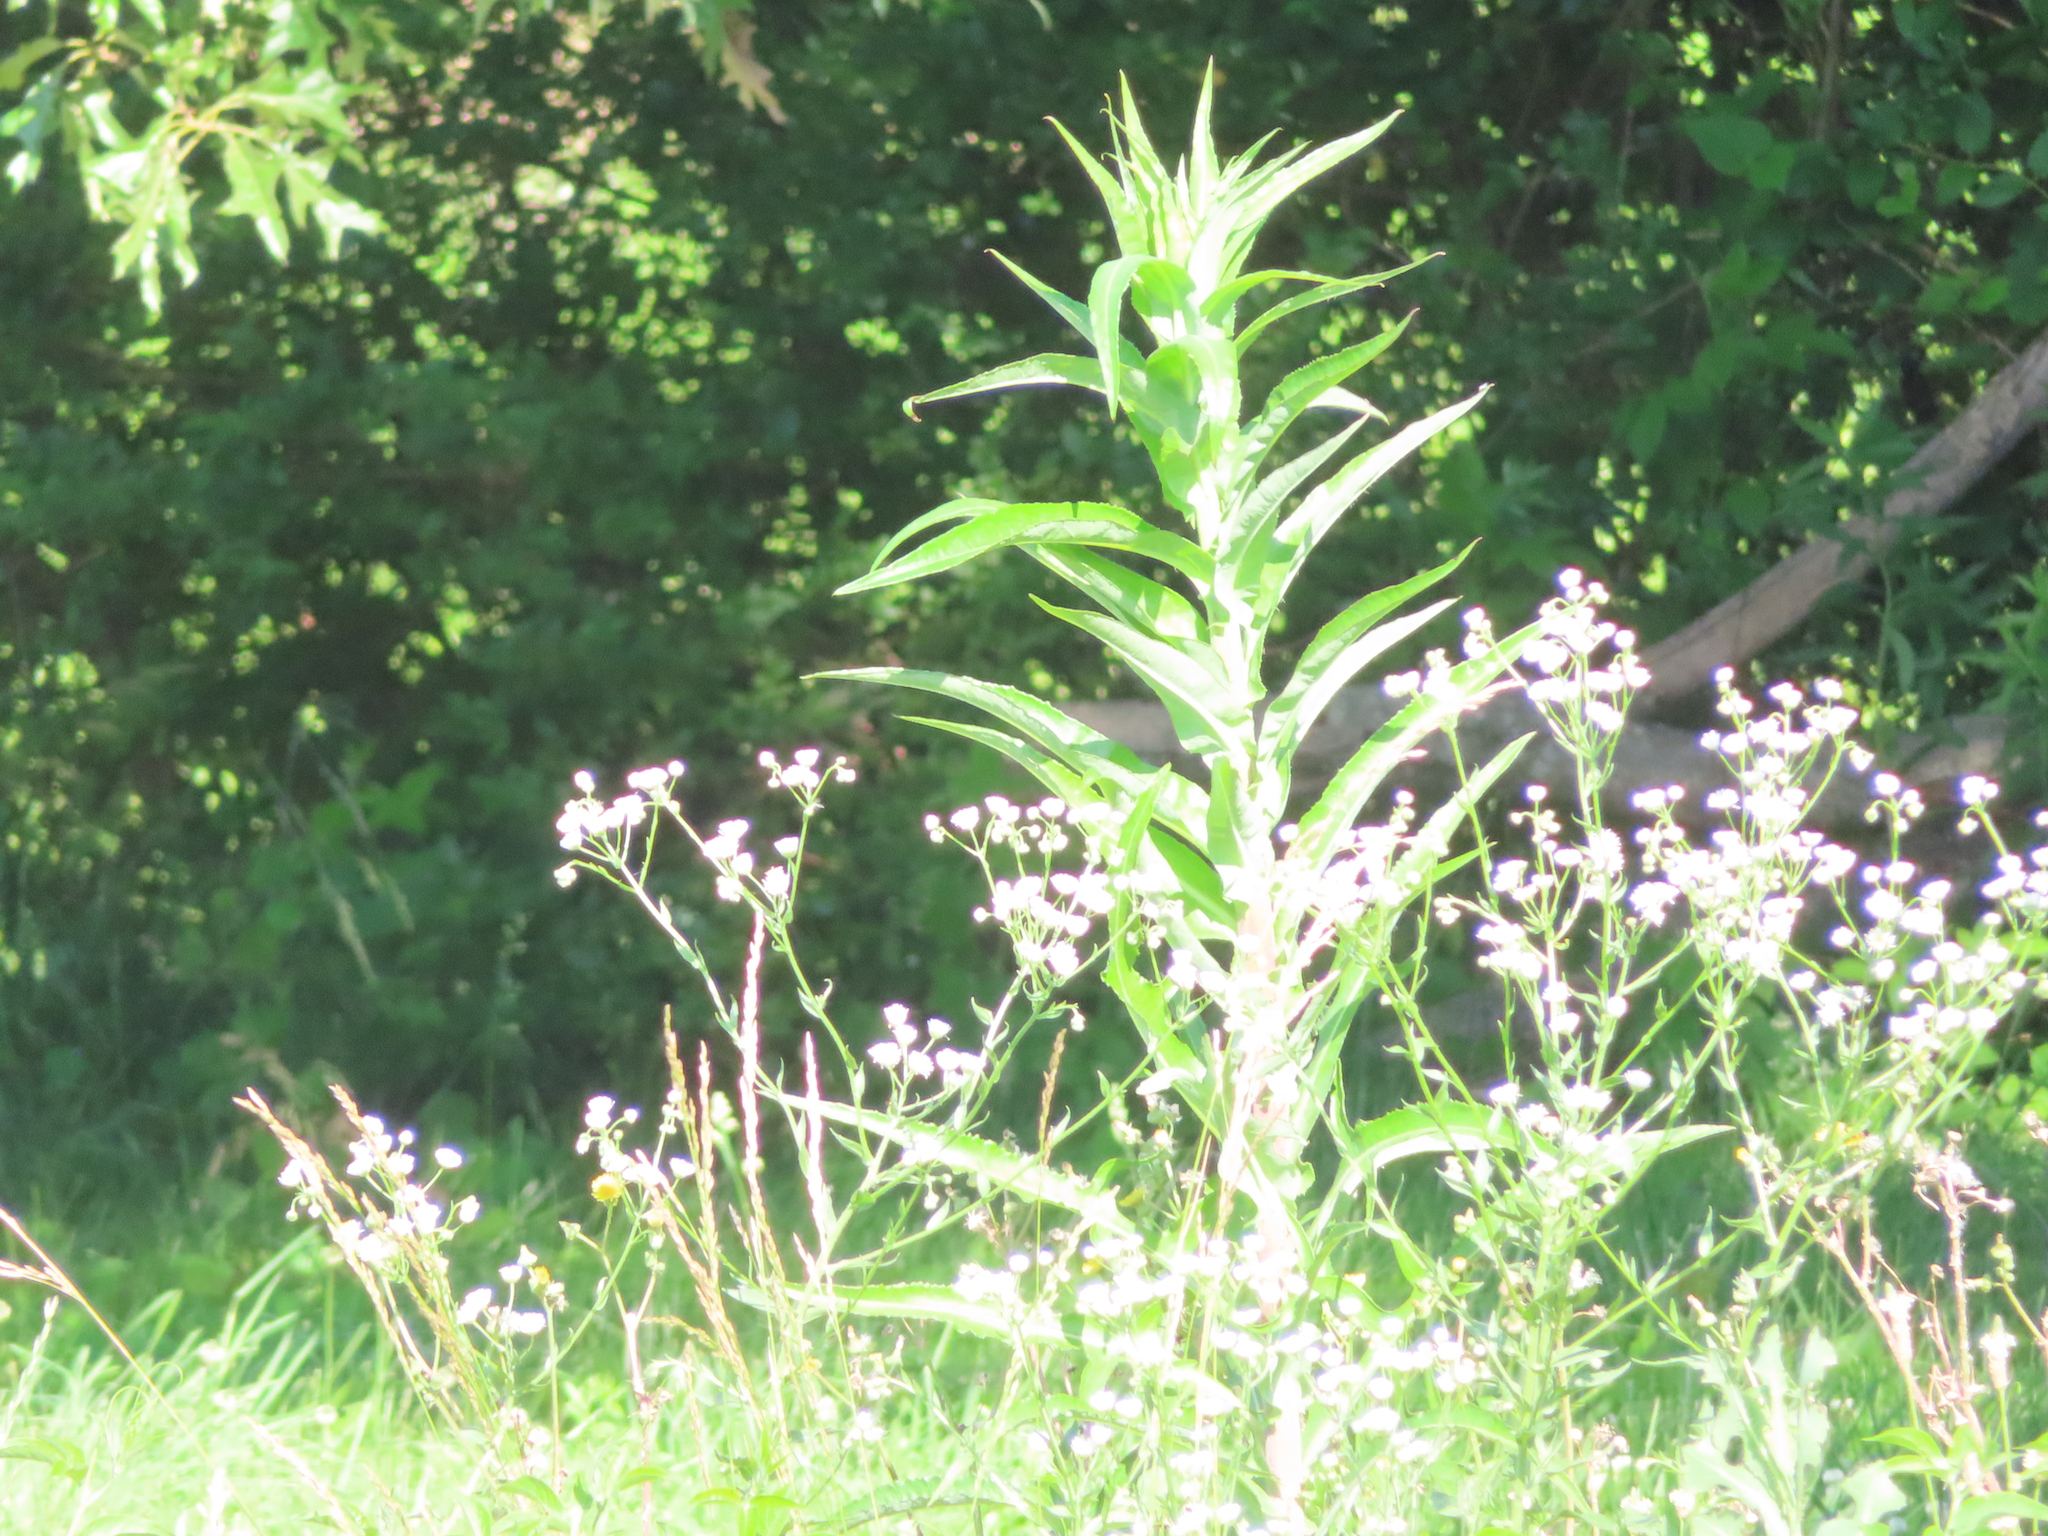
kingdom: Plantae
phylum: Tracheophyta
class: Magnoliopsida
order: Asterales
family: Asteraceae
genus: Sonchus
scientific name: Sonchus
